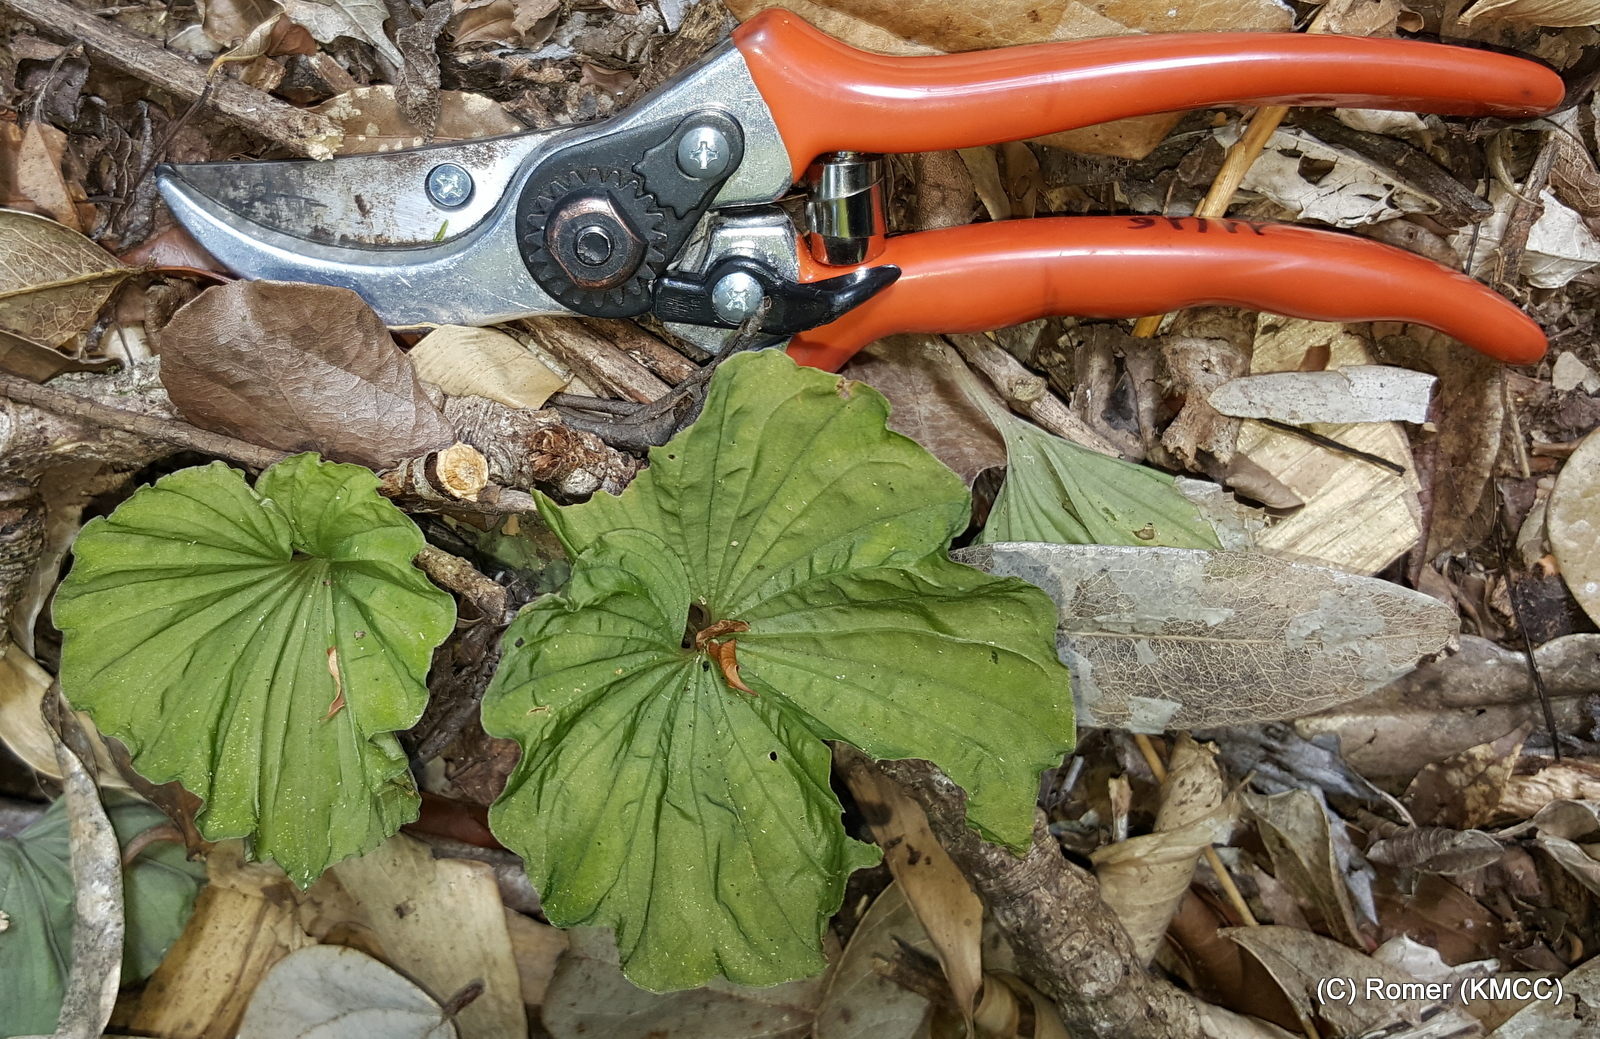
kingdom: Plantae
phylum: Tracheophyta
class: Liliopsida
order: Asparagales
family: Orchidaceae
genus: Nervilia
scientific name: Nervilia bicarinata
